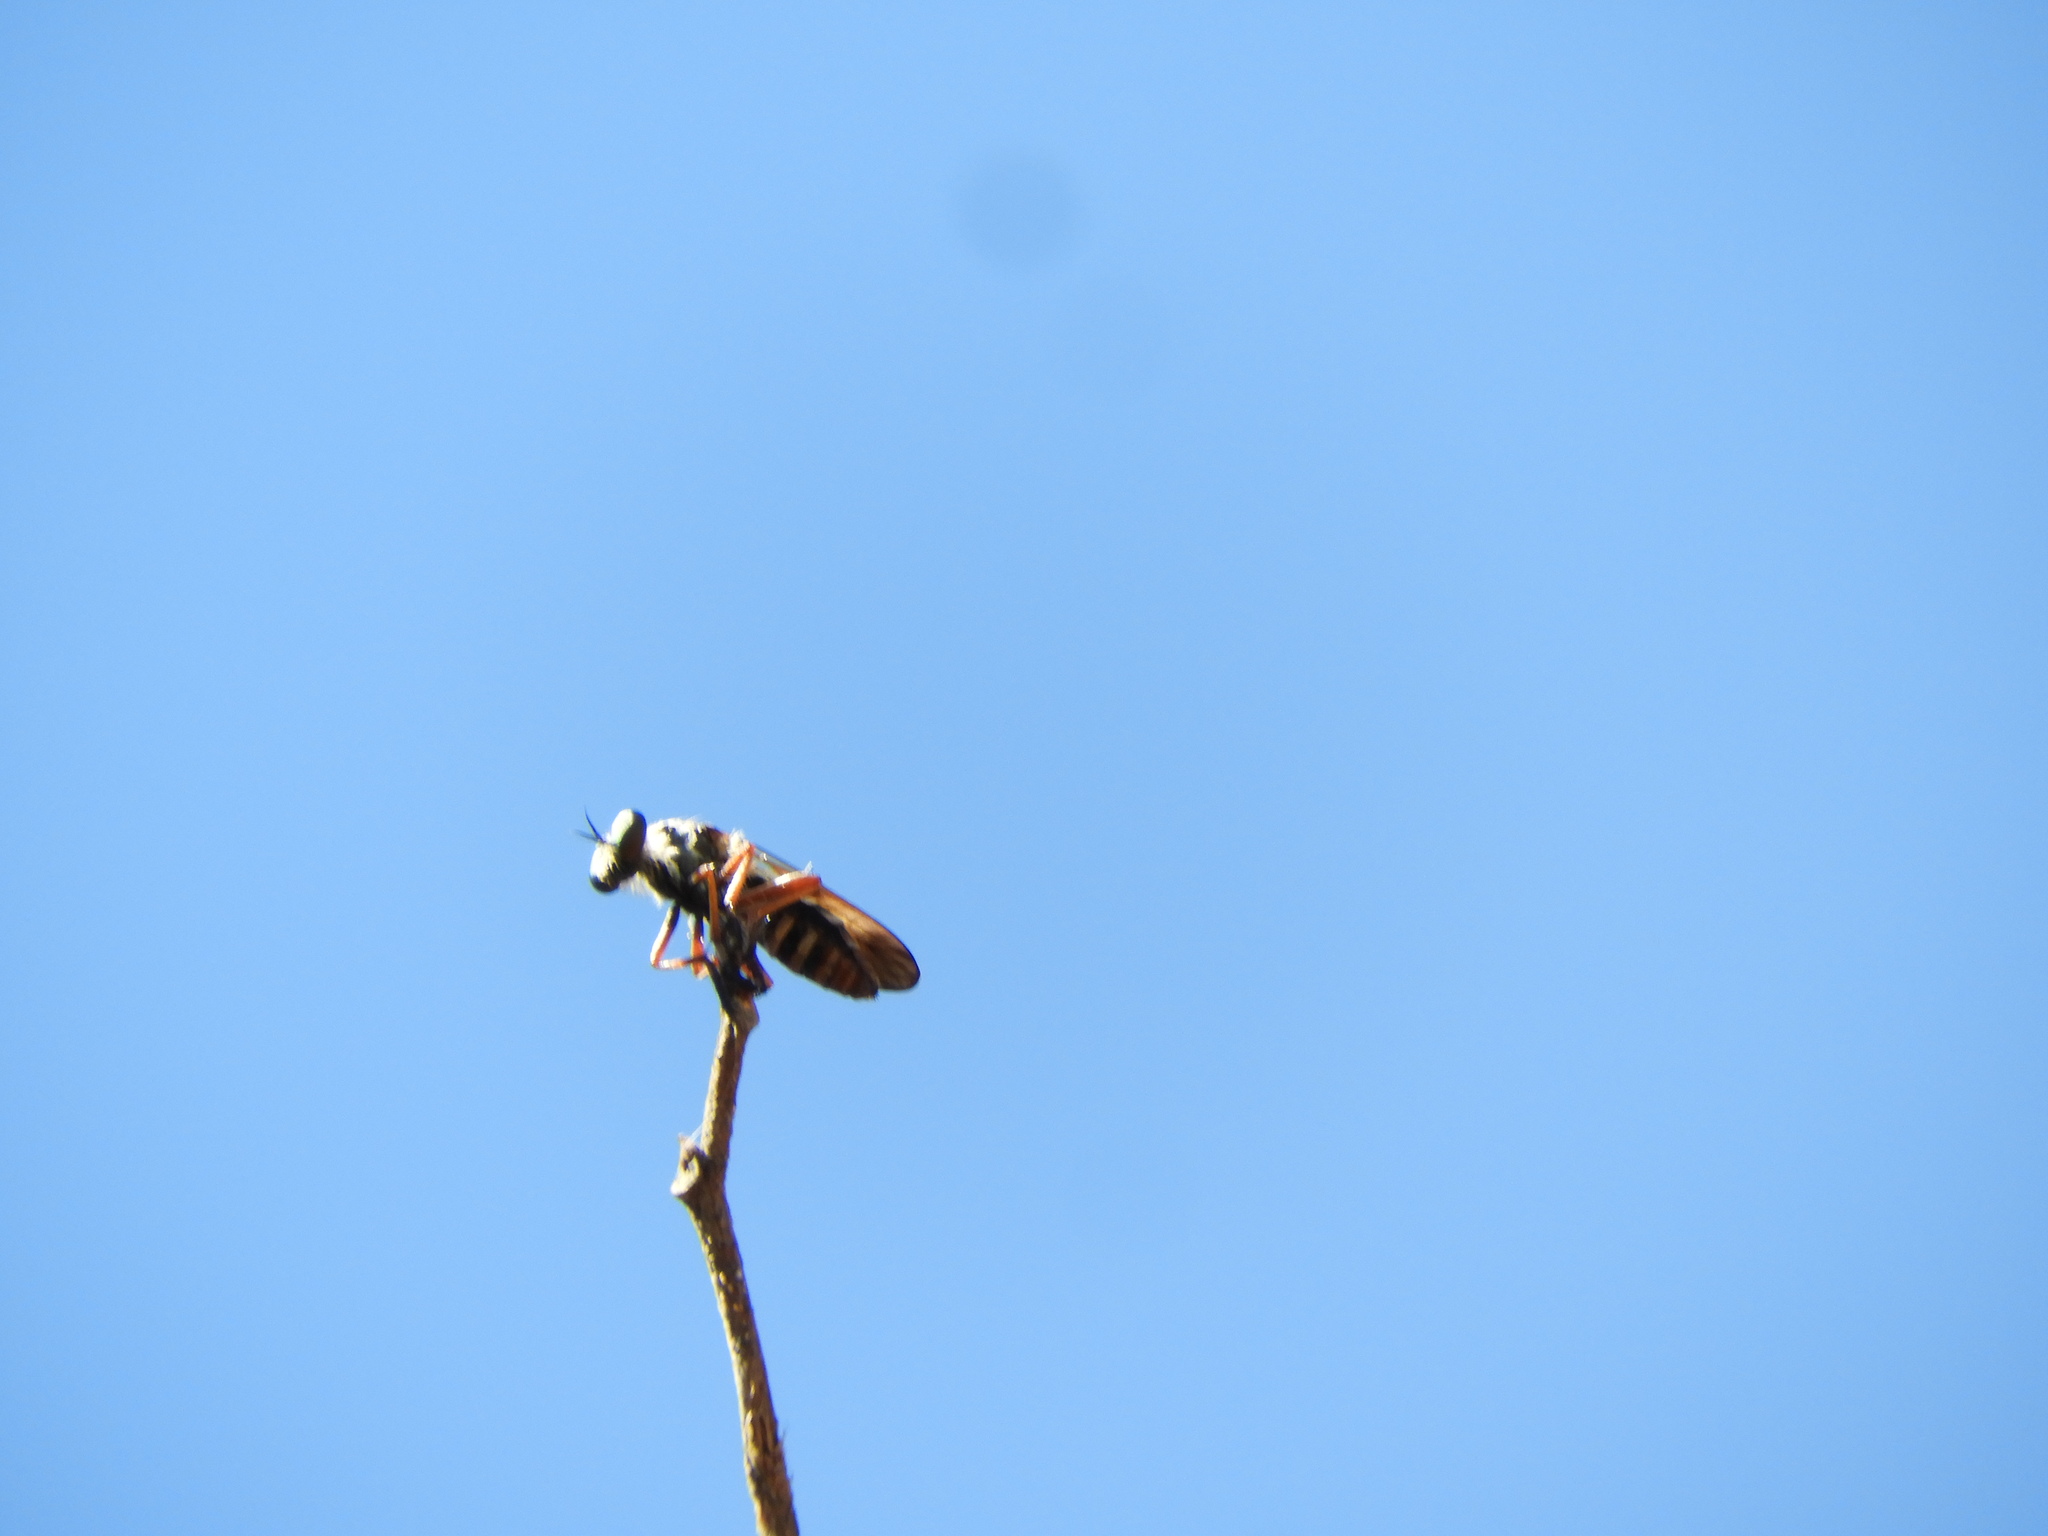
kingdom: Animalia
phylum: Arthropoda
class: Insecta
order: Diptera
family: Asilidae
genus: Heteropogon
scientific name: Heteropogon
